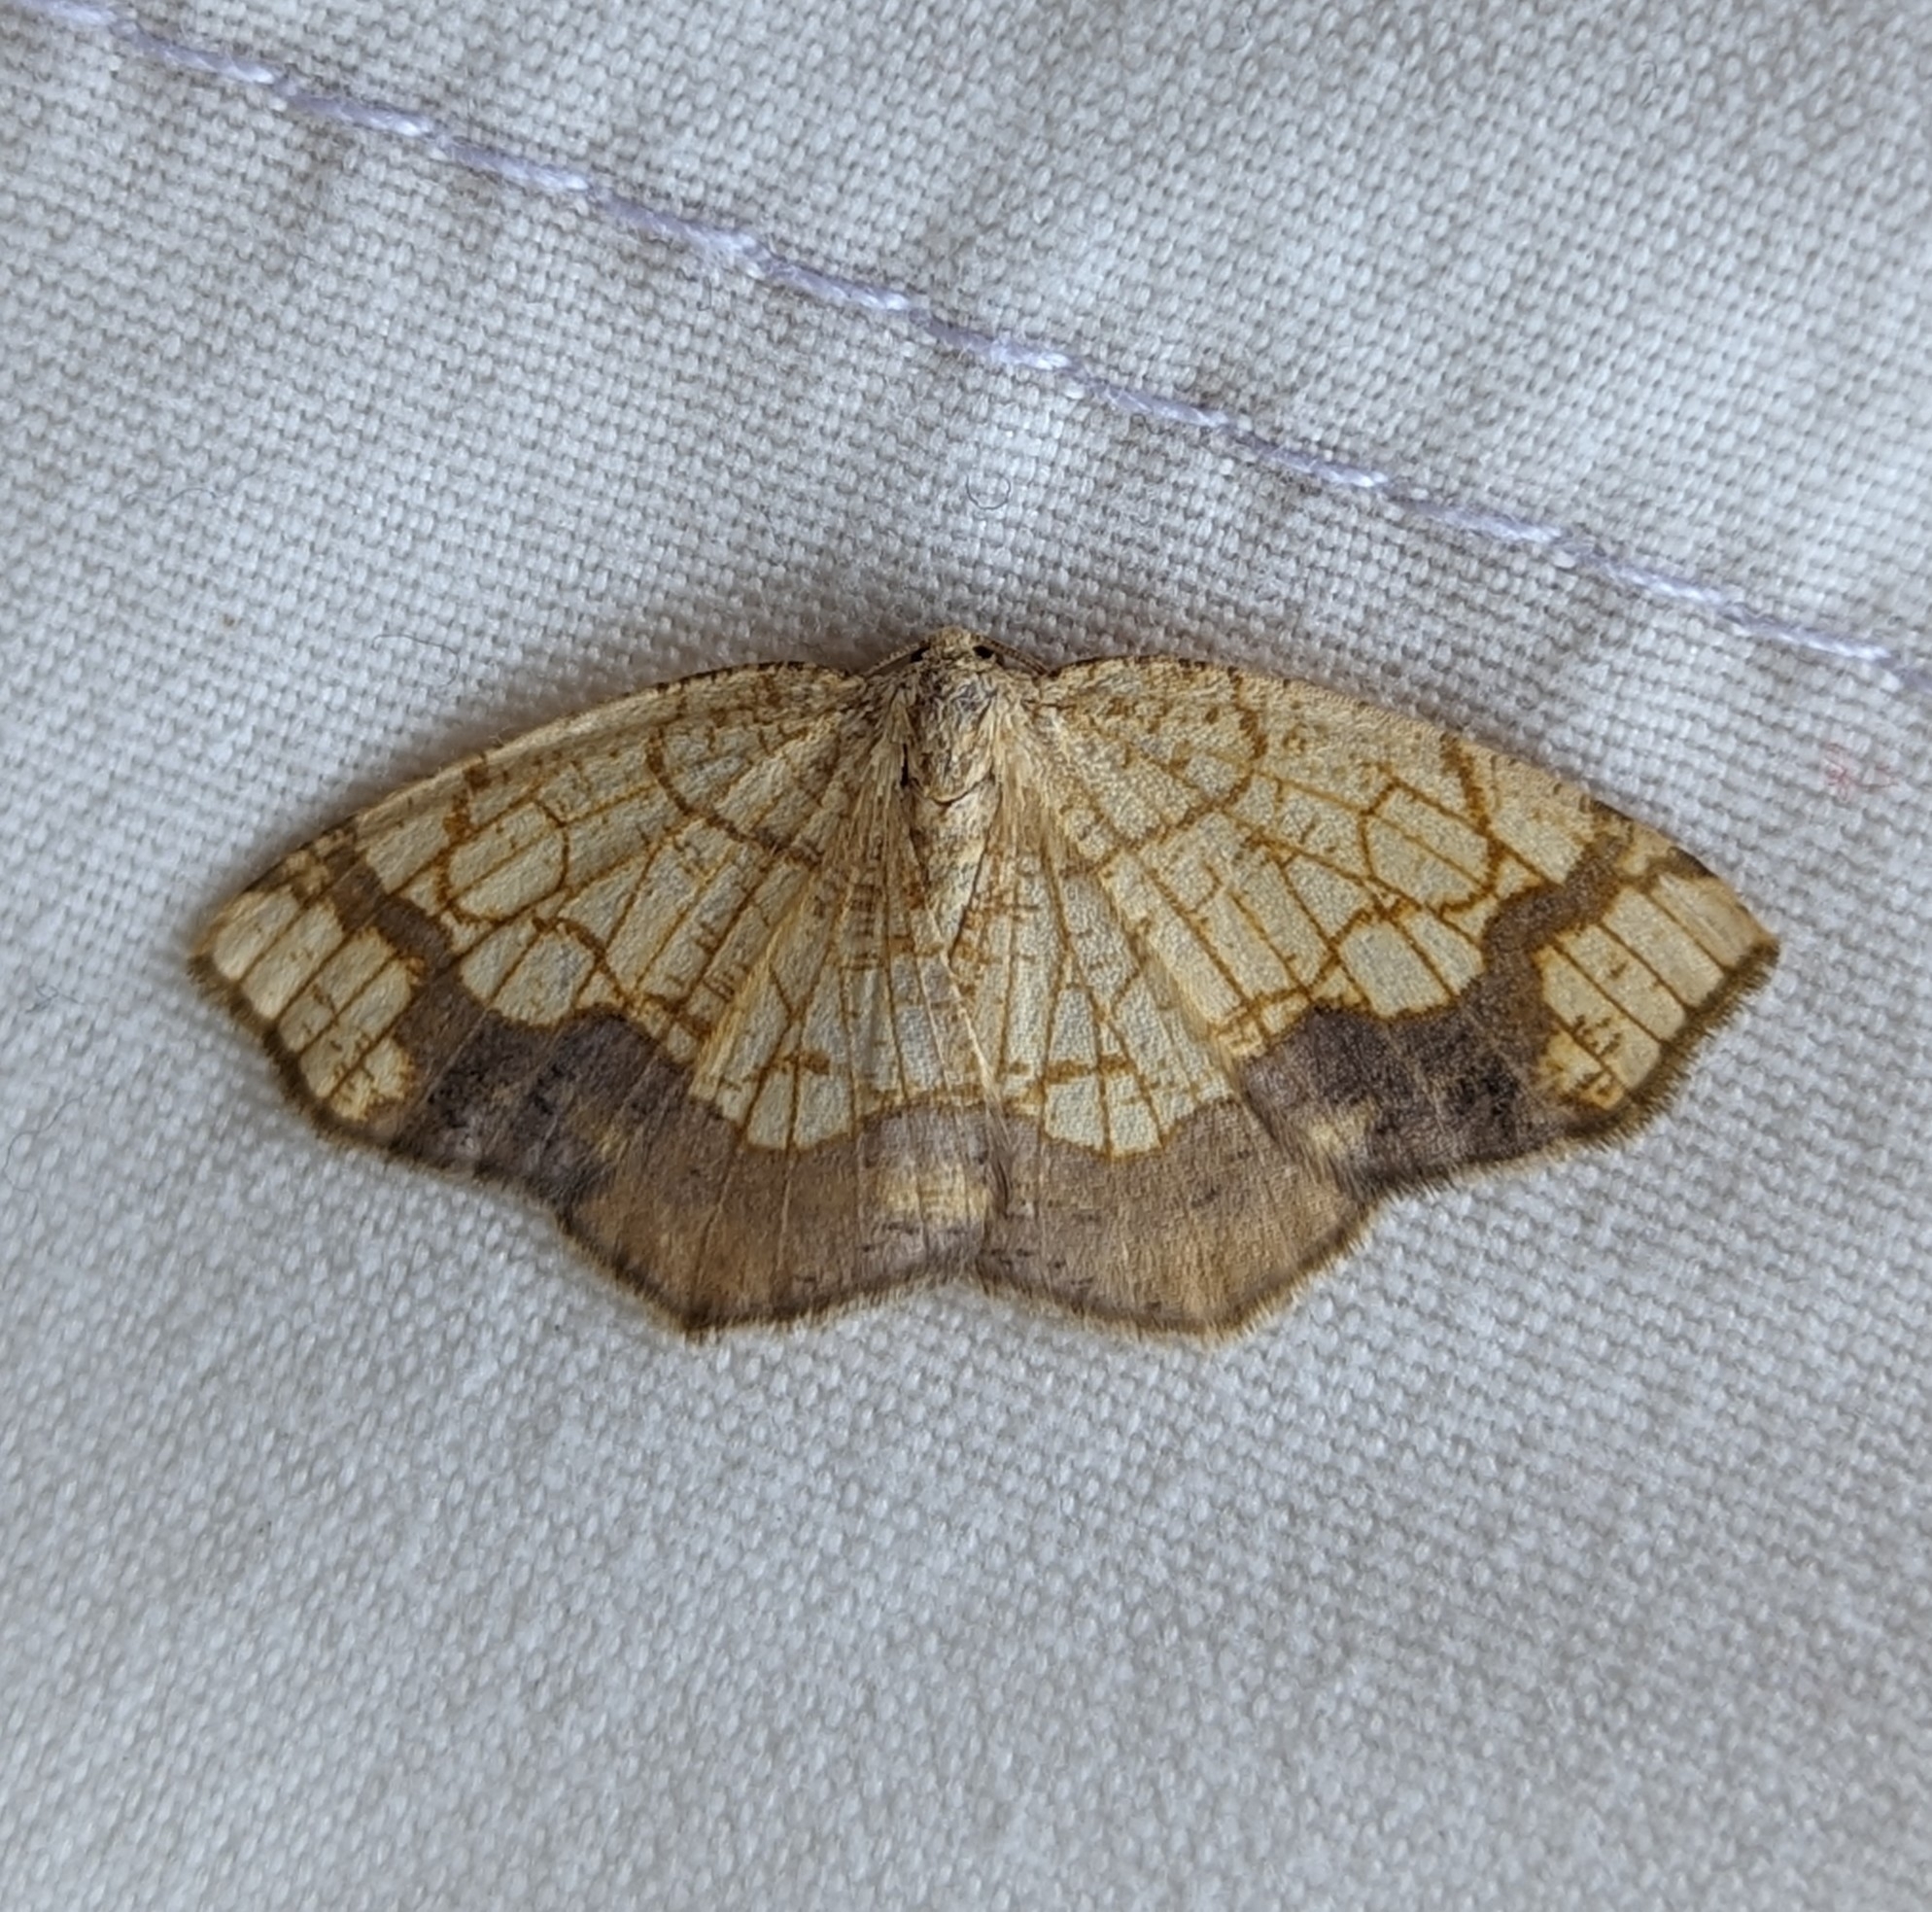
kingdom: Animalia
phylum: Arthropoda
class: Insecta
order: Lepidoptera
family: Geometridae
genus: Nematocampa
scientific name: Nematocampa resistaria
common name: Horned spanworm moth
